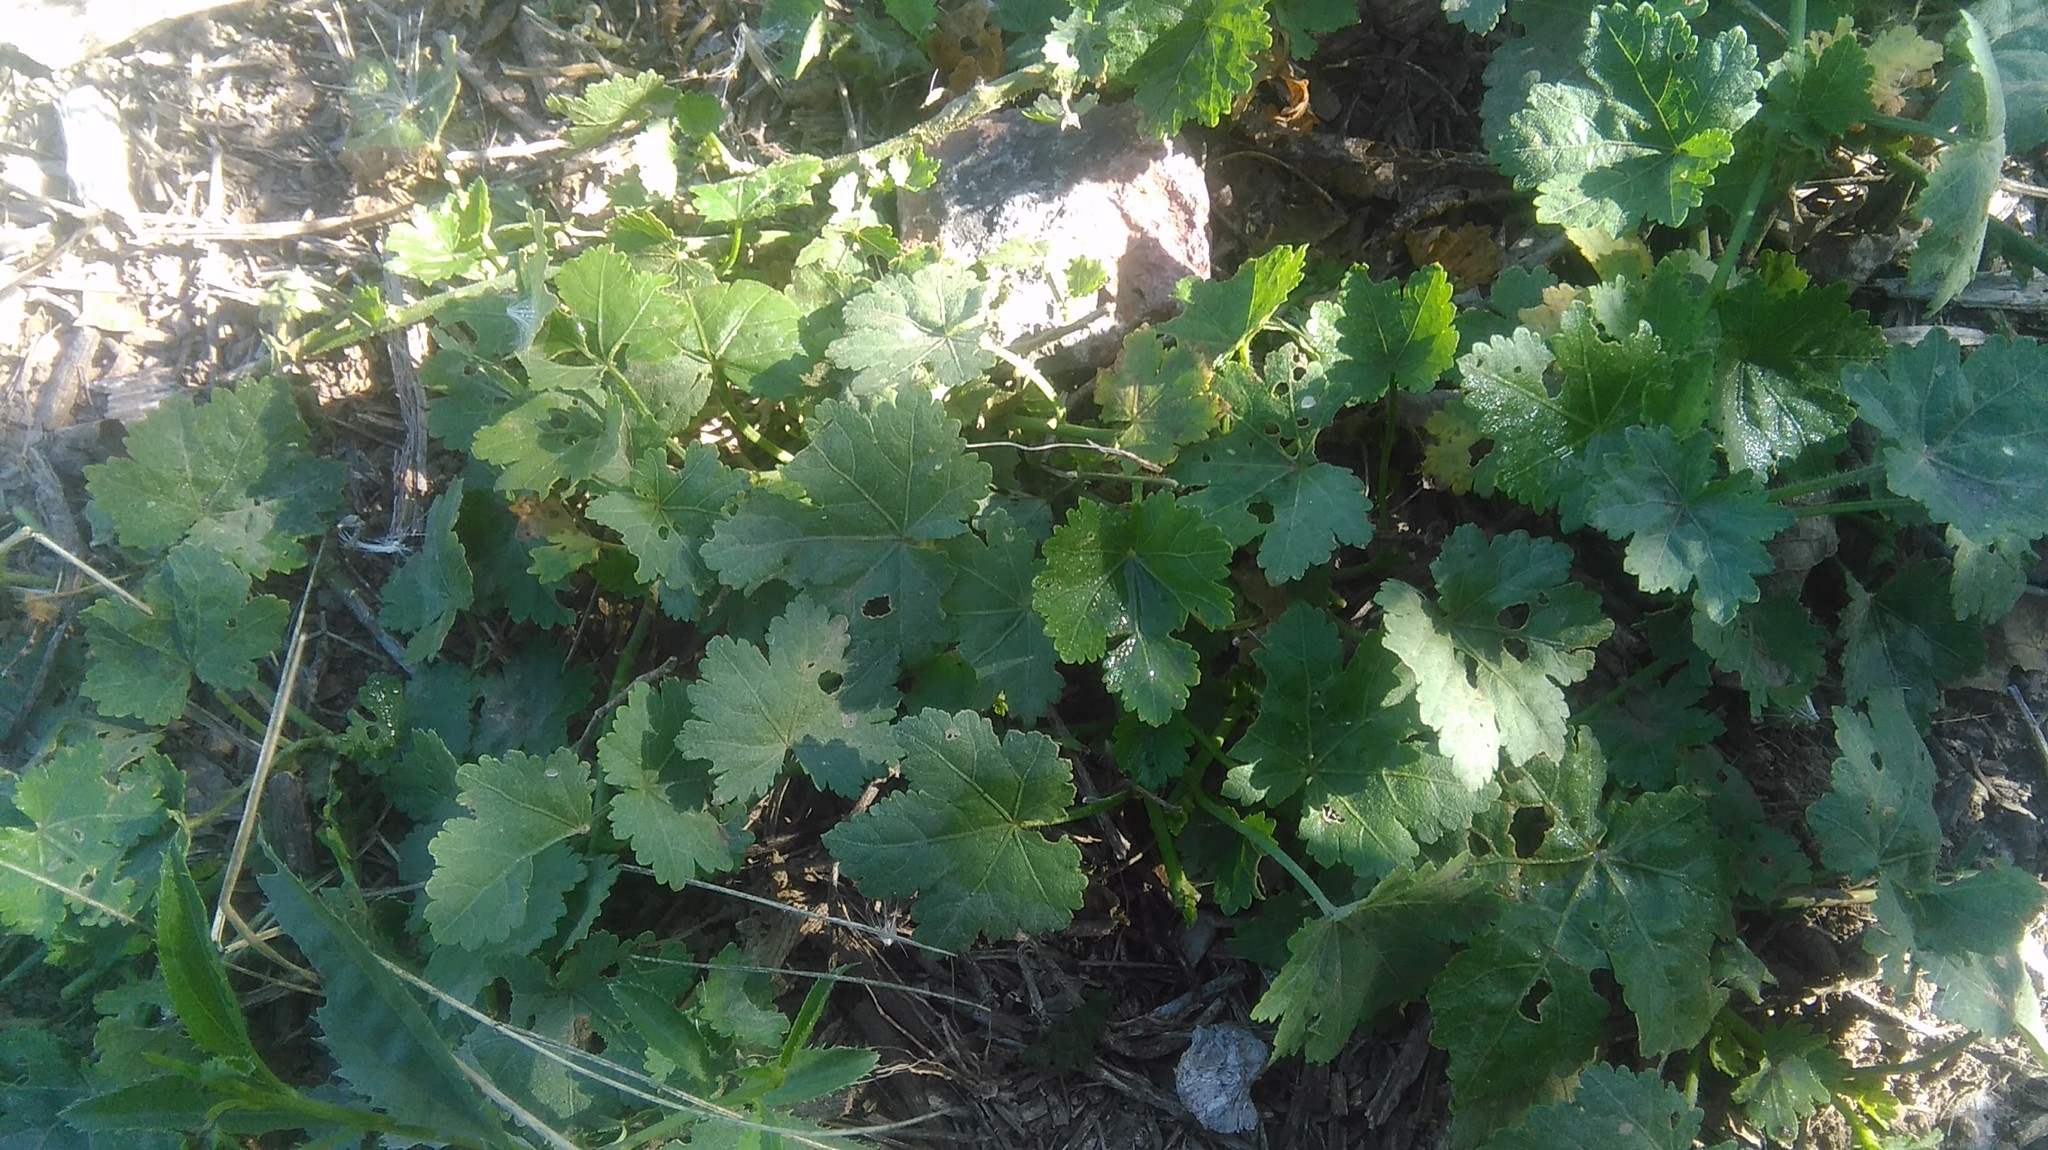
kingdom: Plantae
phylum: Tracheophyta
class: Magnoliopsida
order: Malvales
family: Malvaceae
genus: Modiolastrum
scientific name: Modiolastrum malvifolium
